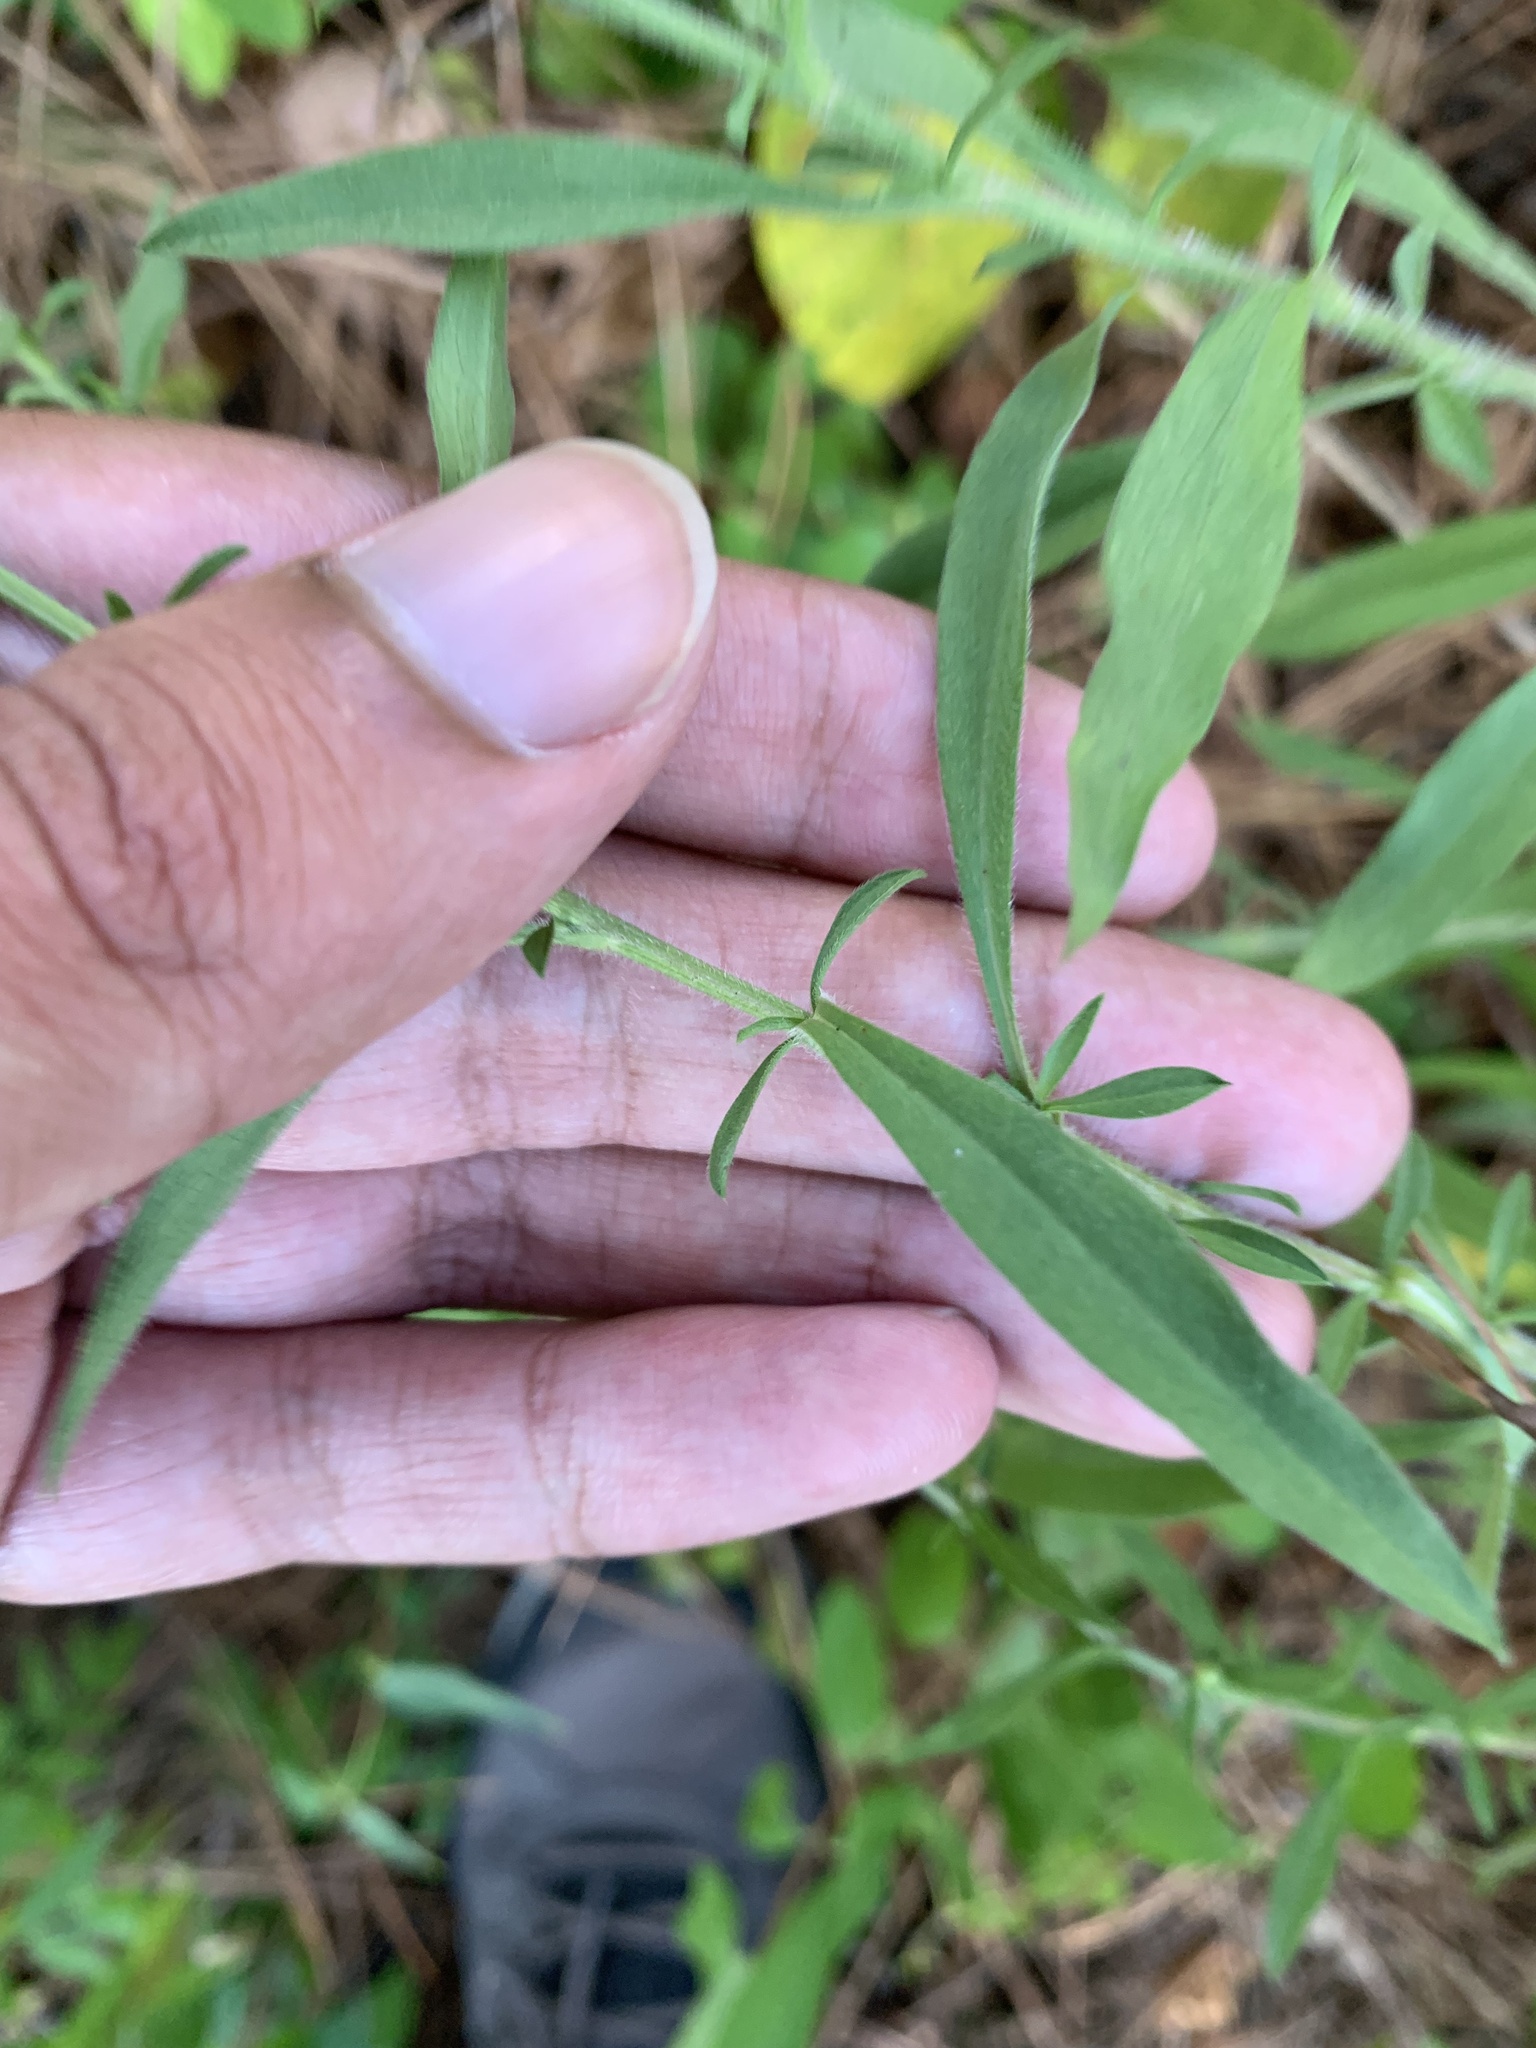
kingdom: Plantae
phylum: Tracheophyta
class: Magnoliopsida
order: Asterales
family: Asteraceae
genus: Symphyotrichum
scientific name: Symphyotrichum pilosum
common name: Awl aster
